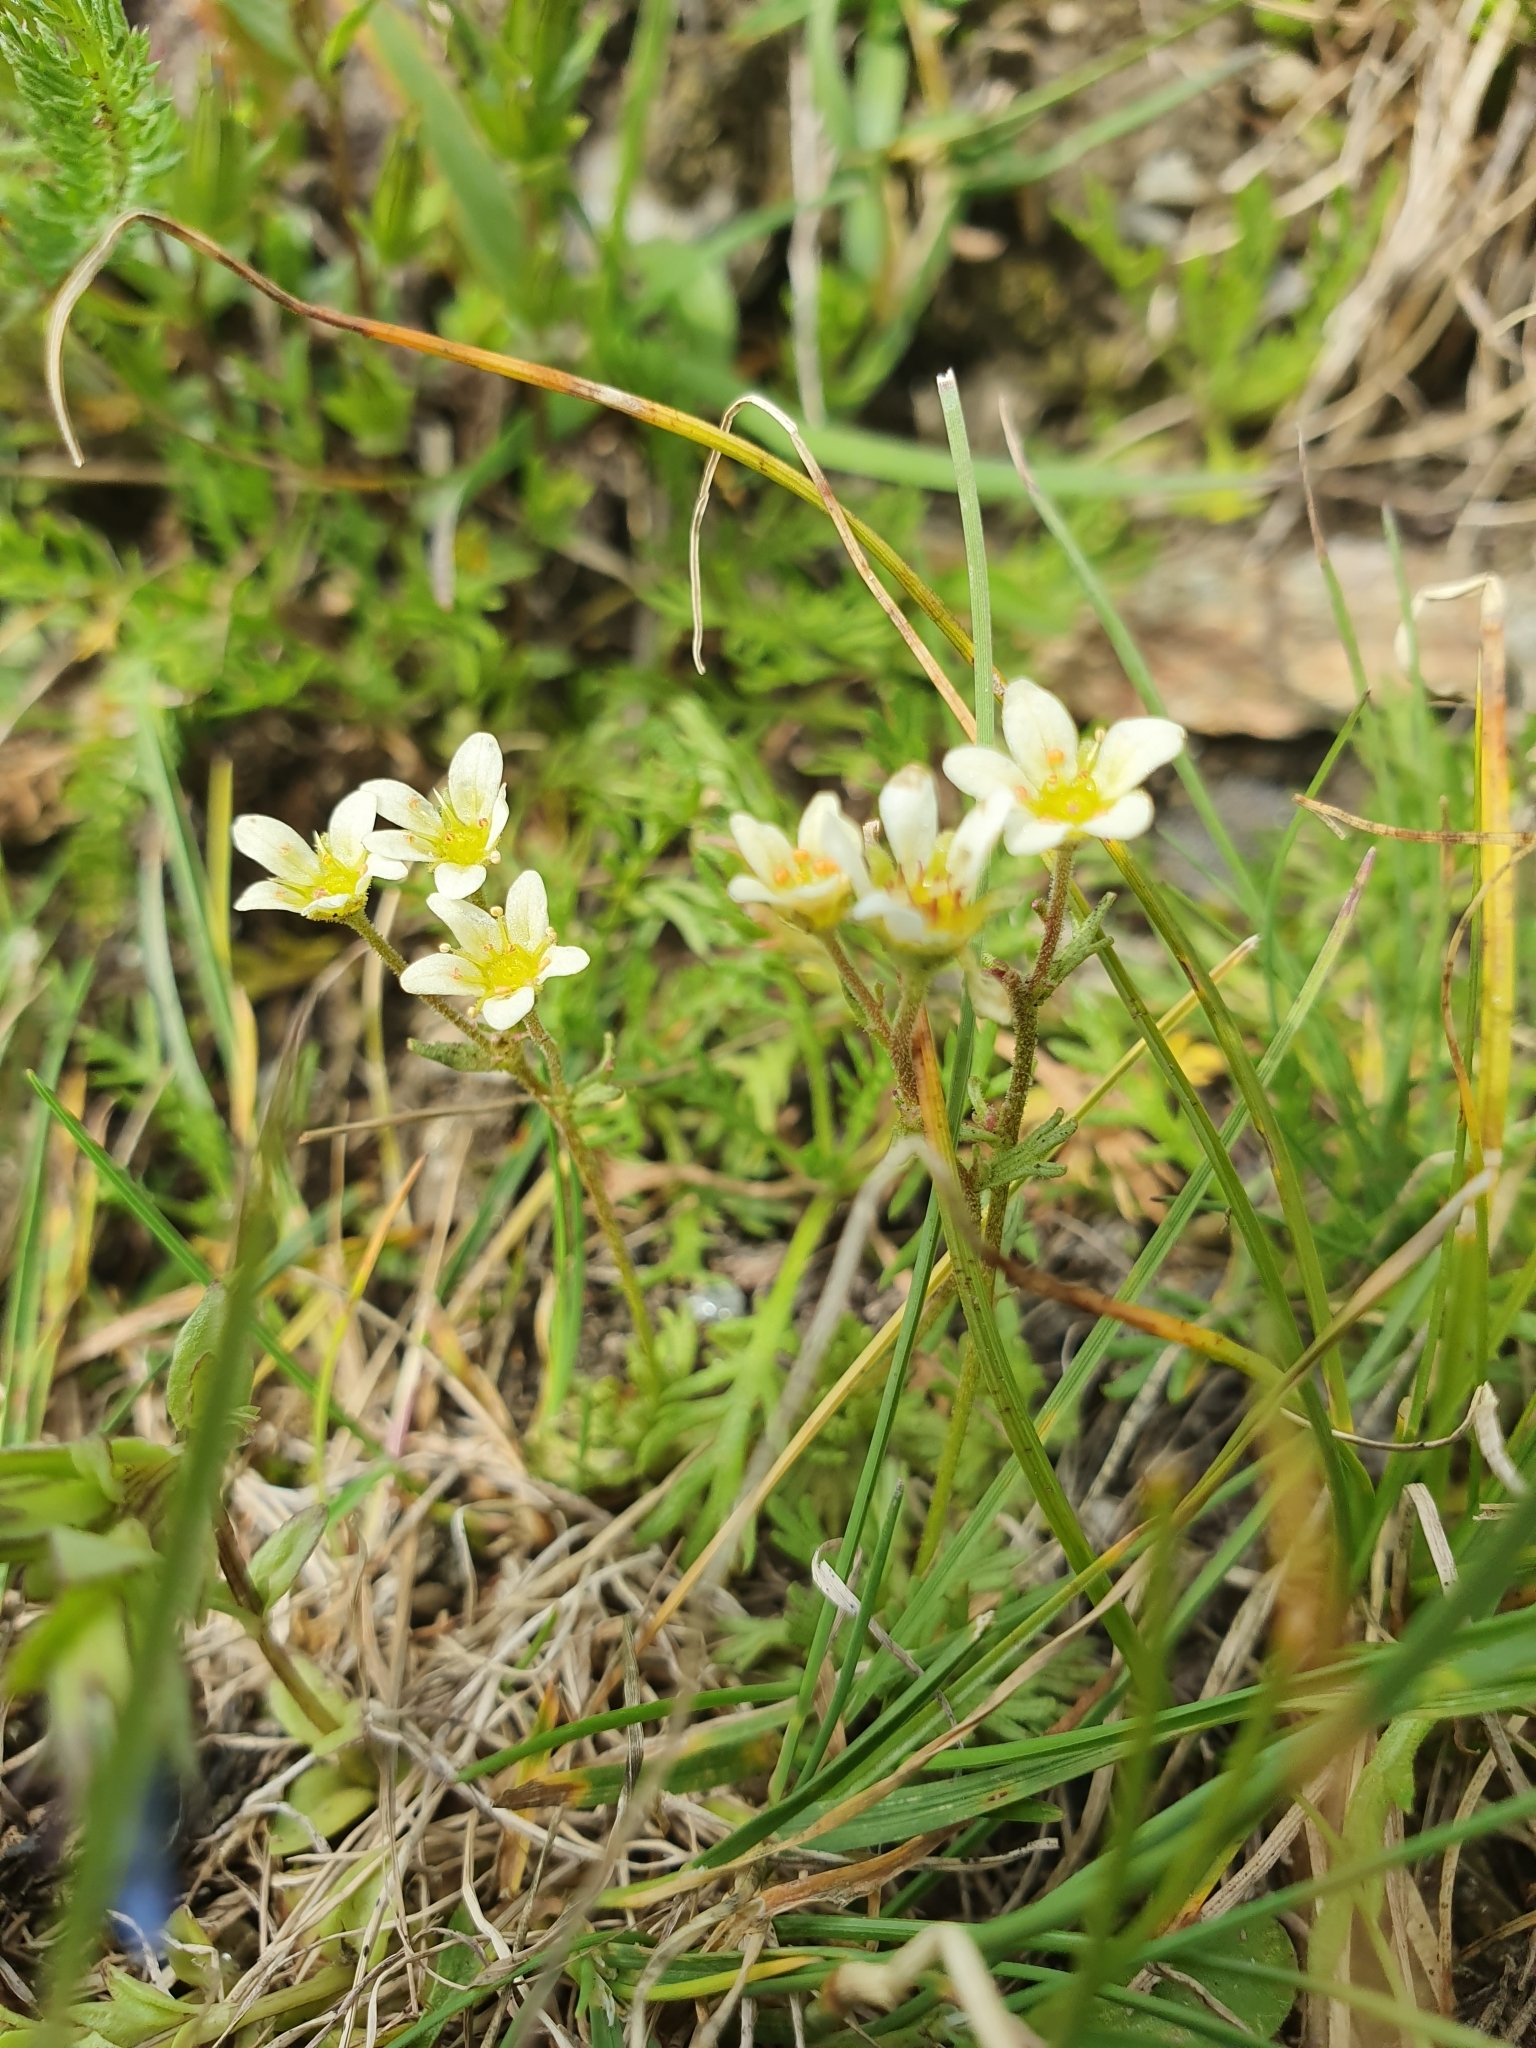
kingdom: Plantae
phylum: Tracheophyta
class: Magnoliopsida
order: Saxifragales
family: Saxifragaceae
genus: Saxifraga
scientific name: Saxifraga exarata
